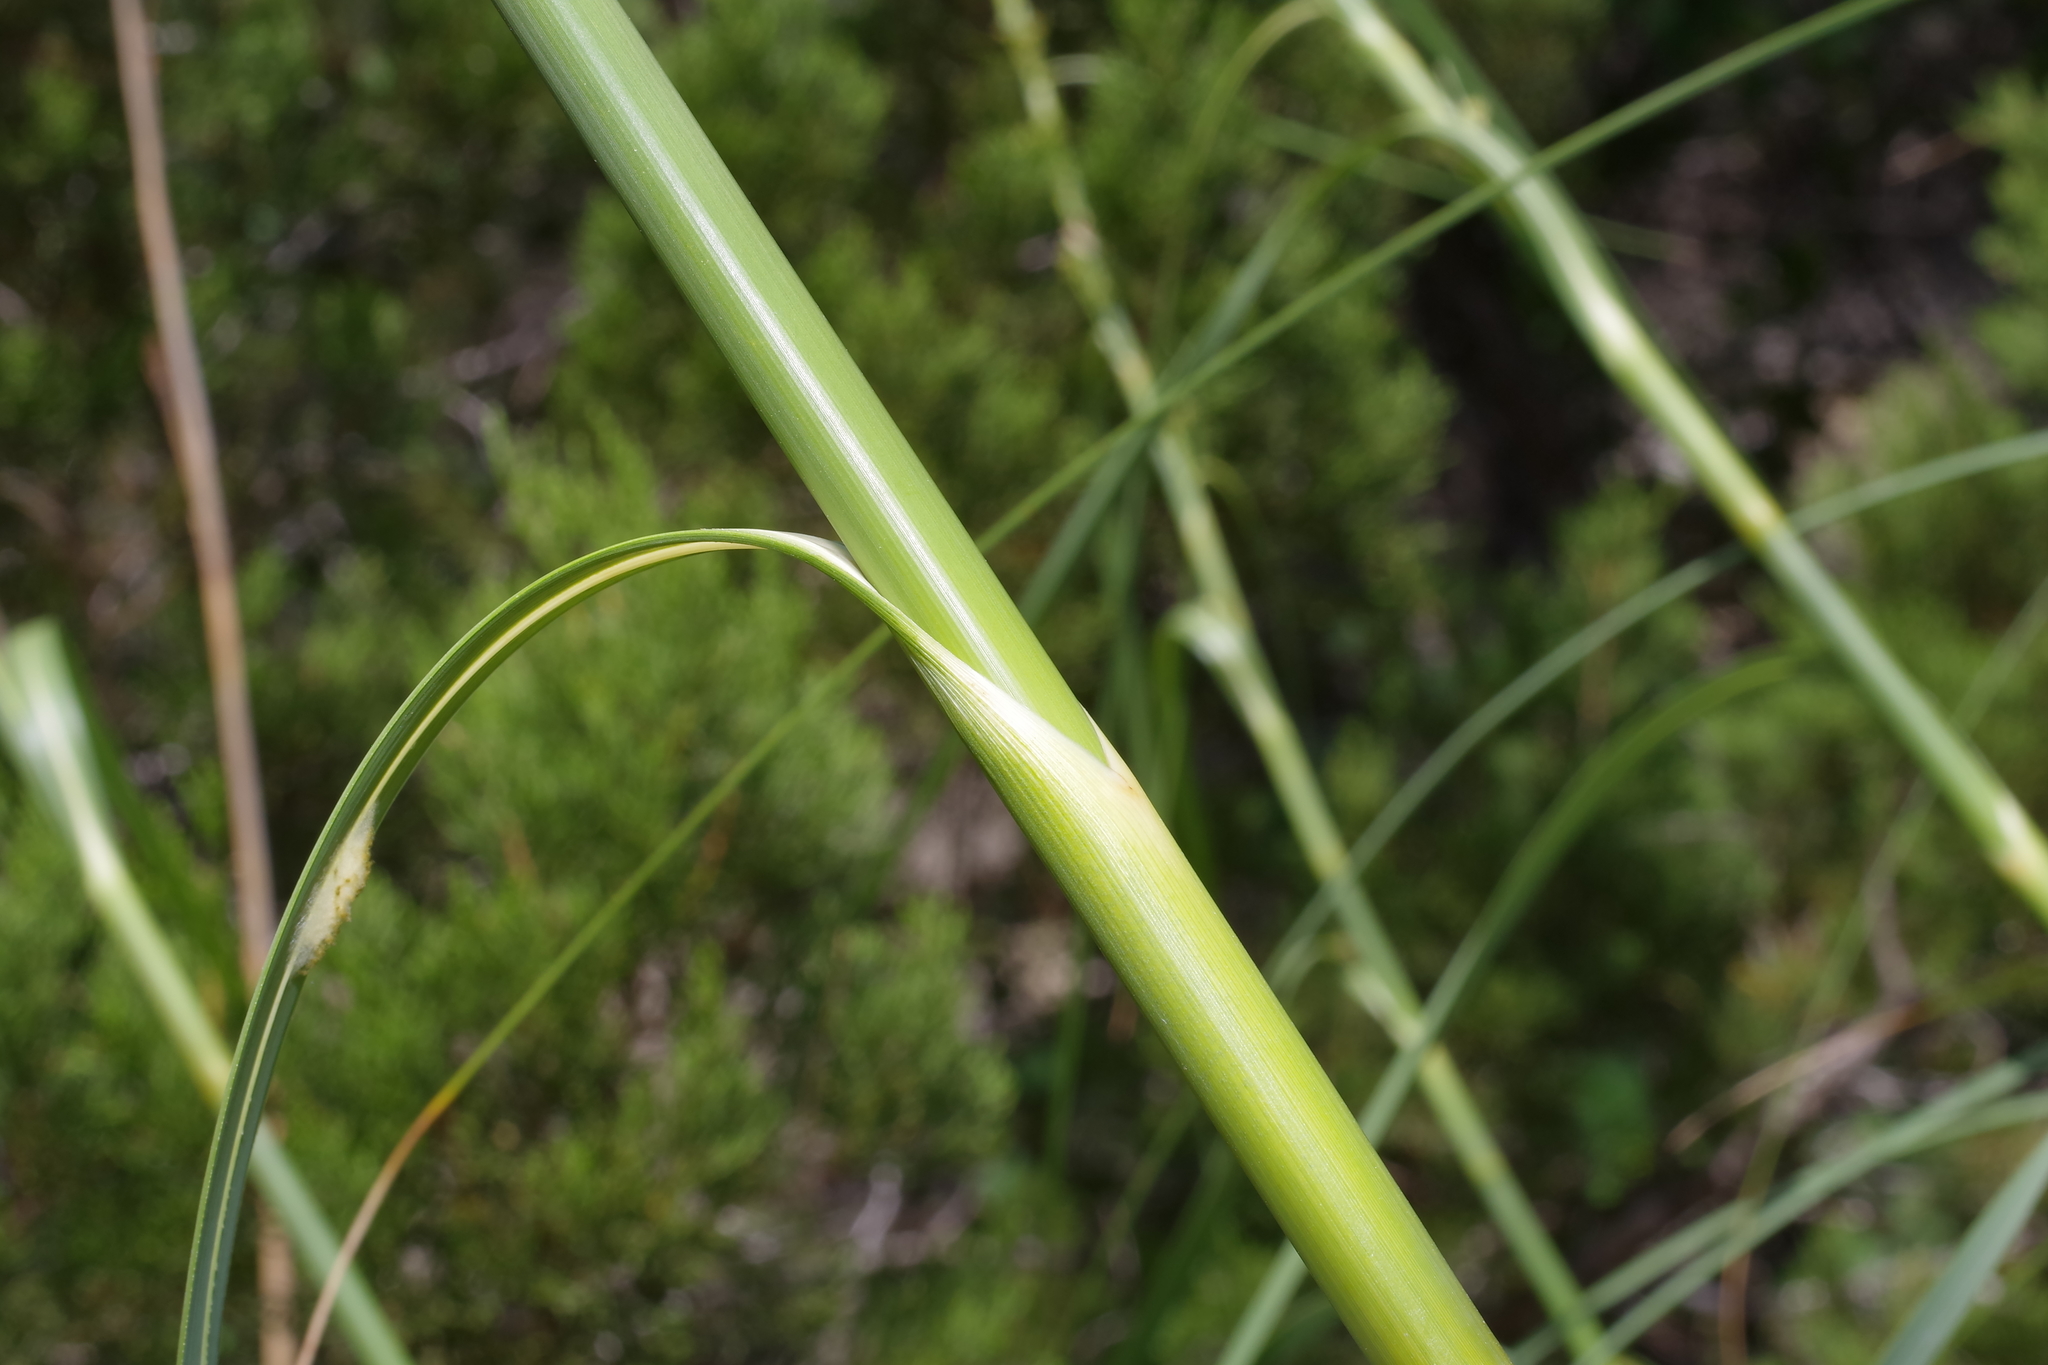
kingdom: Plantae
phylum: Tracheophyta
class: Liliopsida
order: Poales
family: Cyperaceae
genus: Cladium
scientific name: Cladium mariscus
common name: Great fen-sedge
